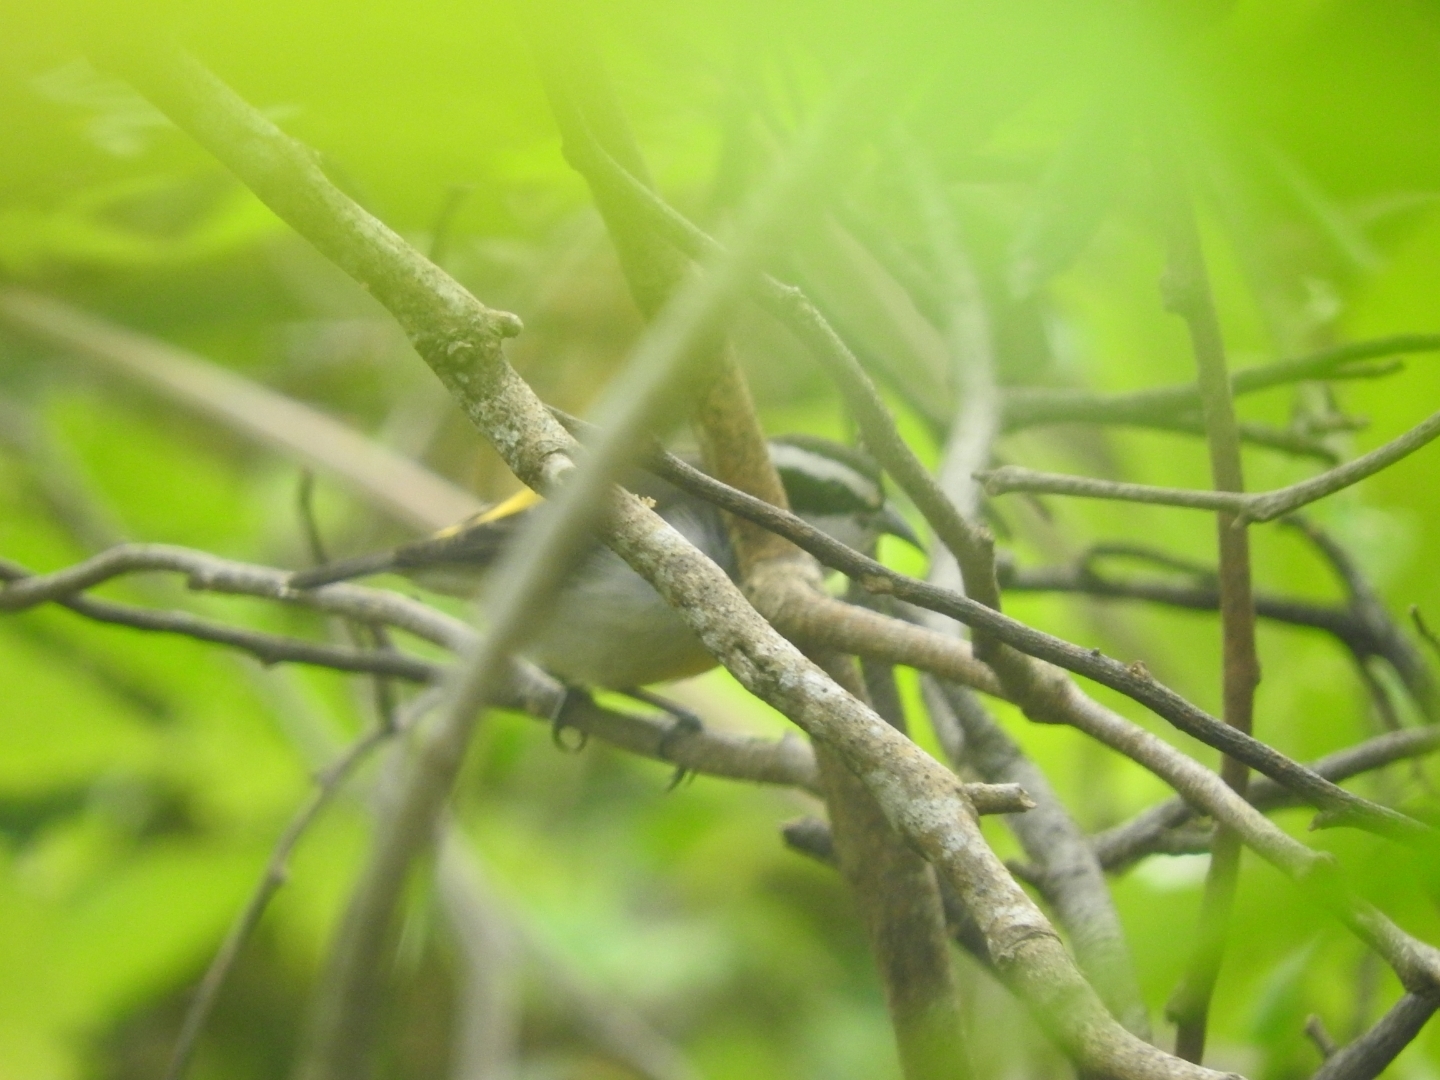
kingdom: Animalia
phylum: Chordata
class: Aves
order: Passeriformes
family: Thraupidae
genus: Coereba
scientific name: Coereba flaveola
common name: Bananaquit
